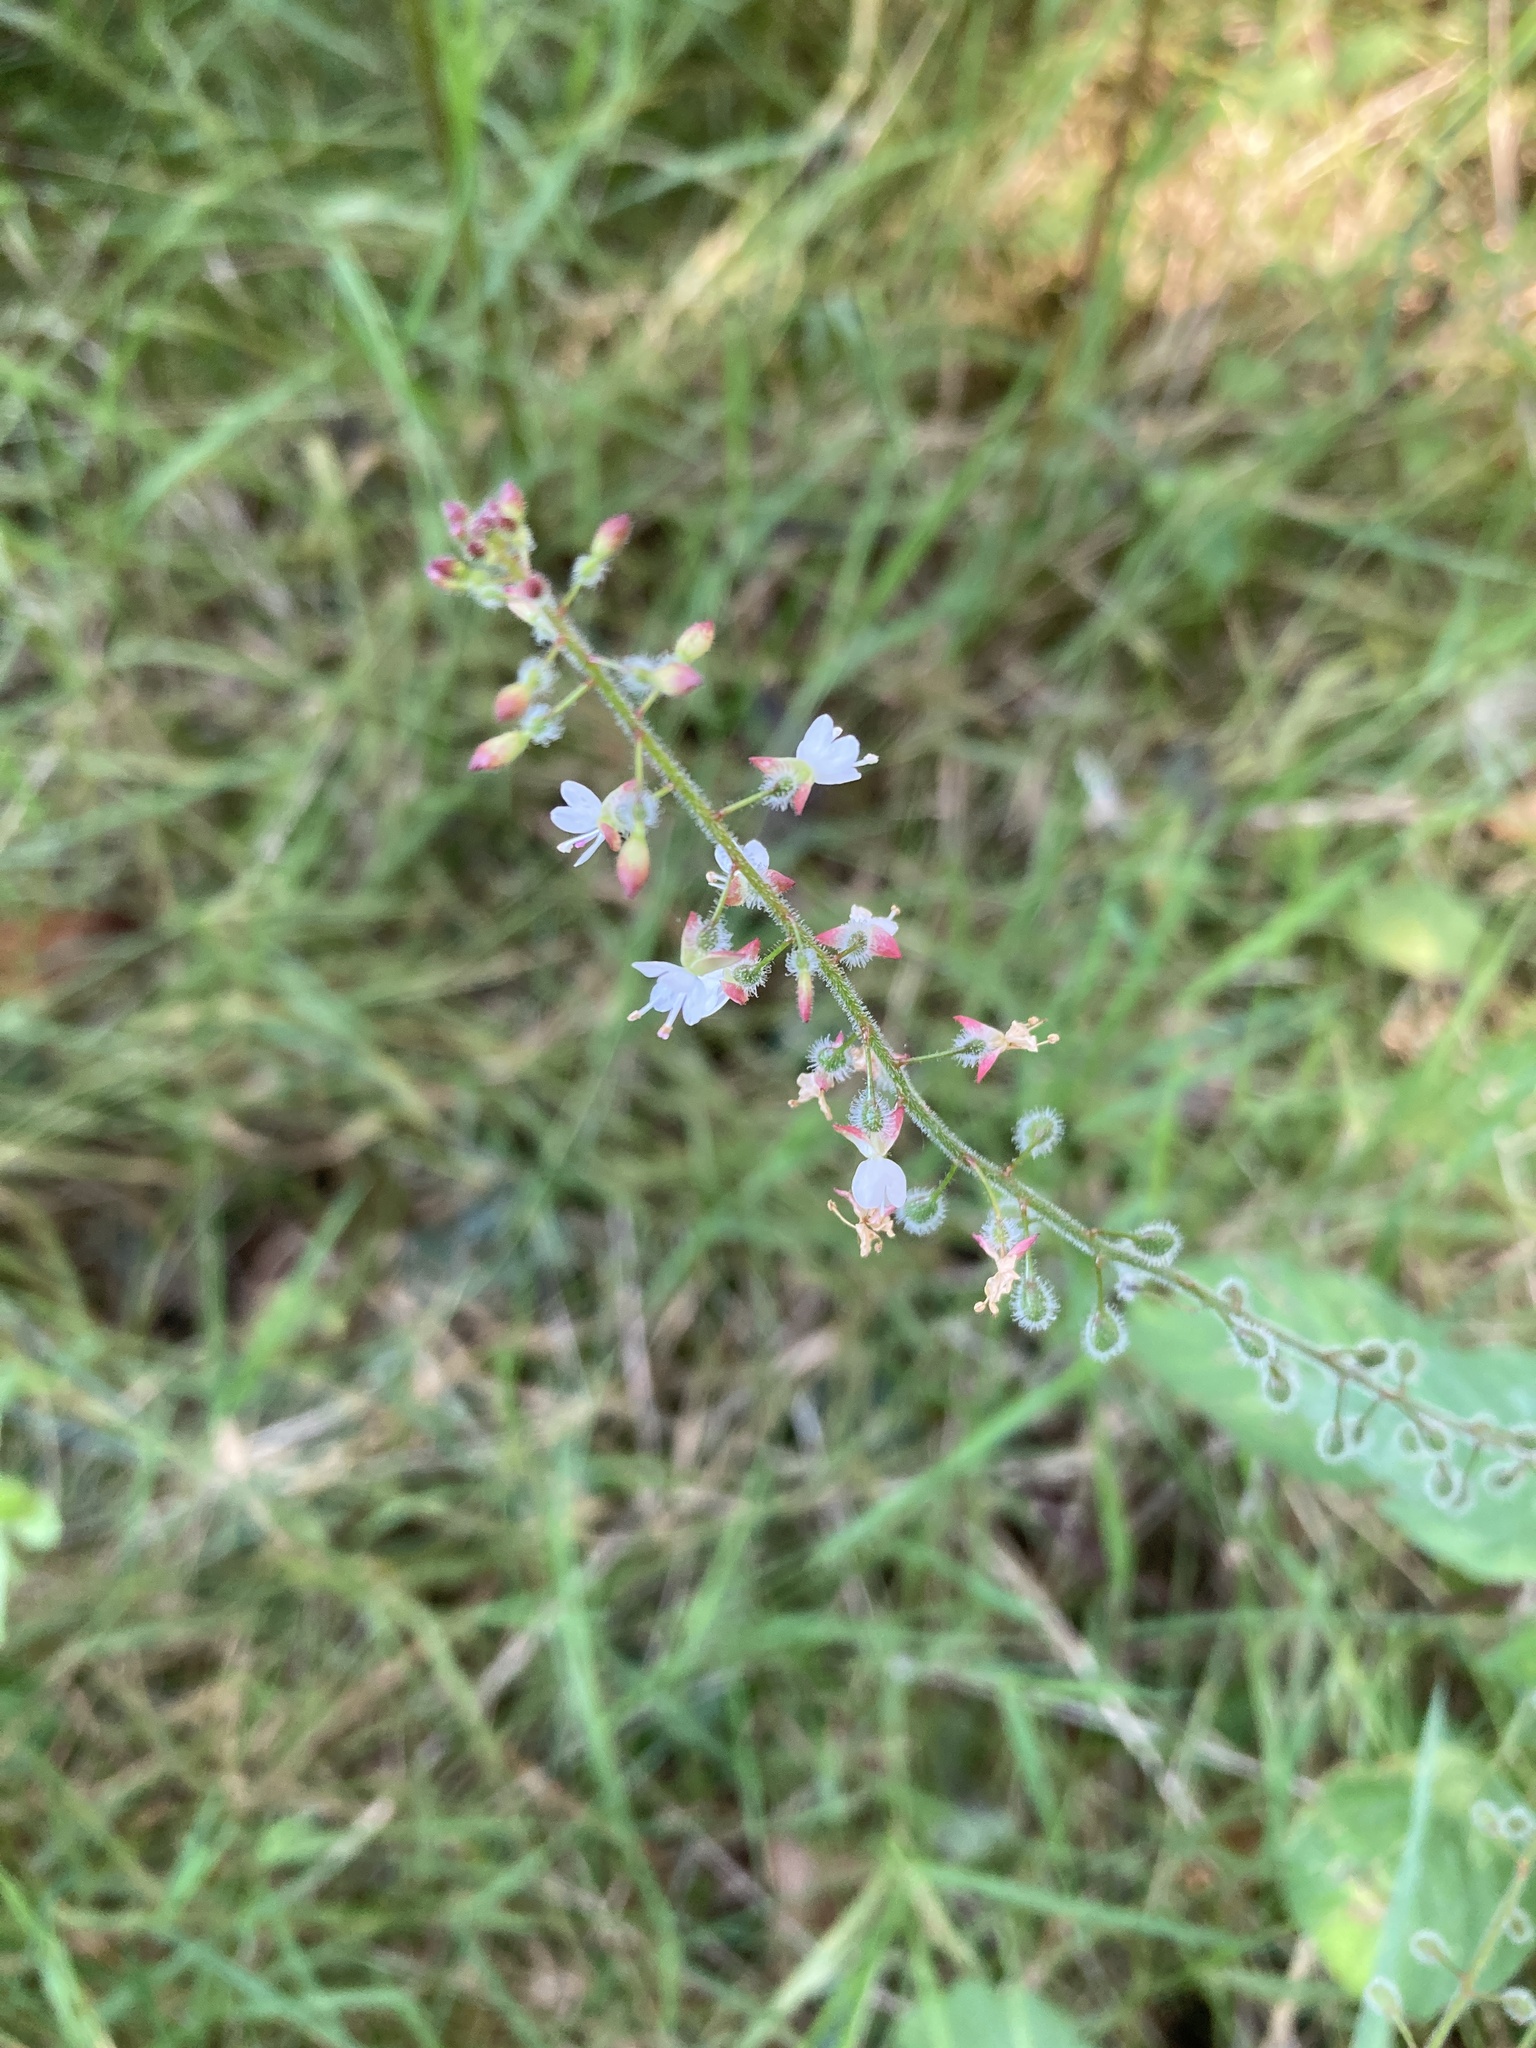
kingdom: Plantae
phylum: Tracheophyta
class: Magnoliopsida
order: Myrtales
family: Onagraceae
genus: Circaea
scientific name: Circaea lutetiana
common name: Enchanter's-nightshade
